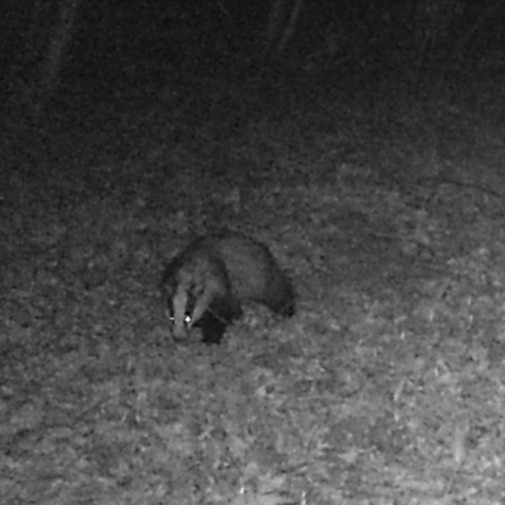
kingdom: Animalia
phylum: Chordata
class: Mammalia
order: Carnivora
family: Mustelidae
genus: Meles
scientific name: Meles meles
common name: Eurasian badger
